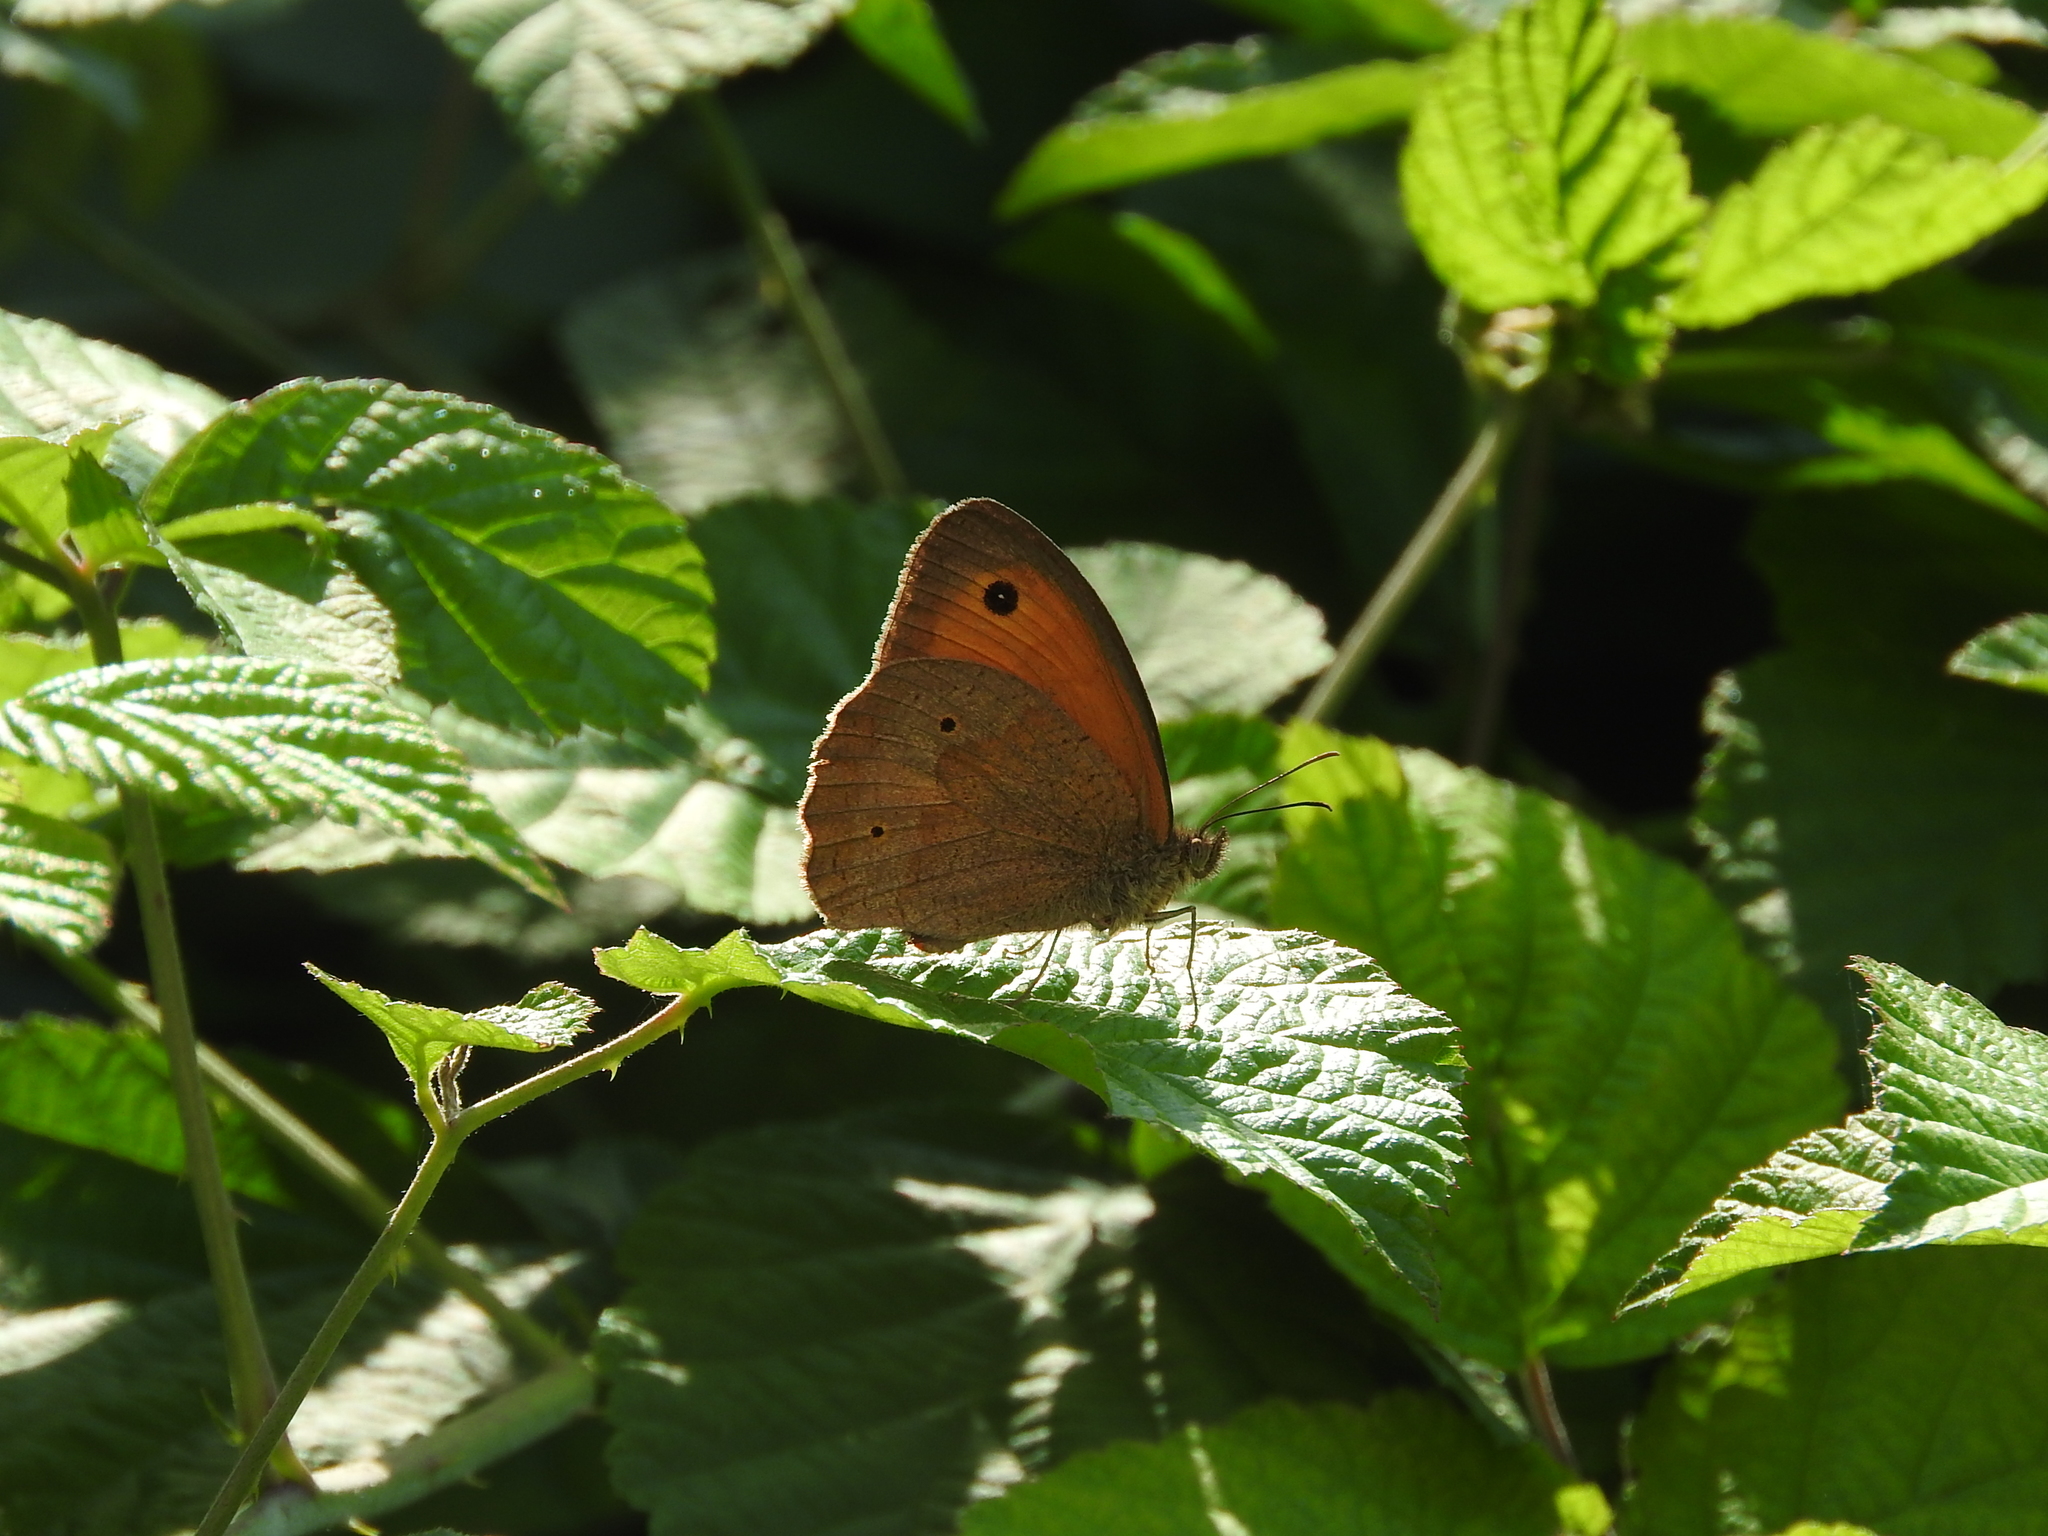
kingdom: Animalia
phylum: Arthropoda
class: Insecta
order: Lepidoptera
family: Nymphalidae
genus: Maniola
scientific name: Maniola jurtina
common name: Meadow brown
